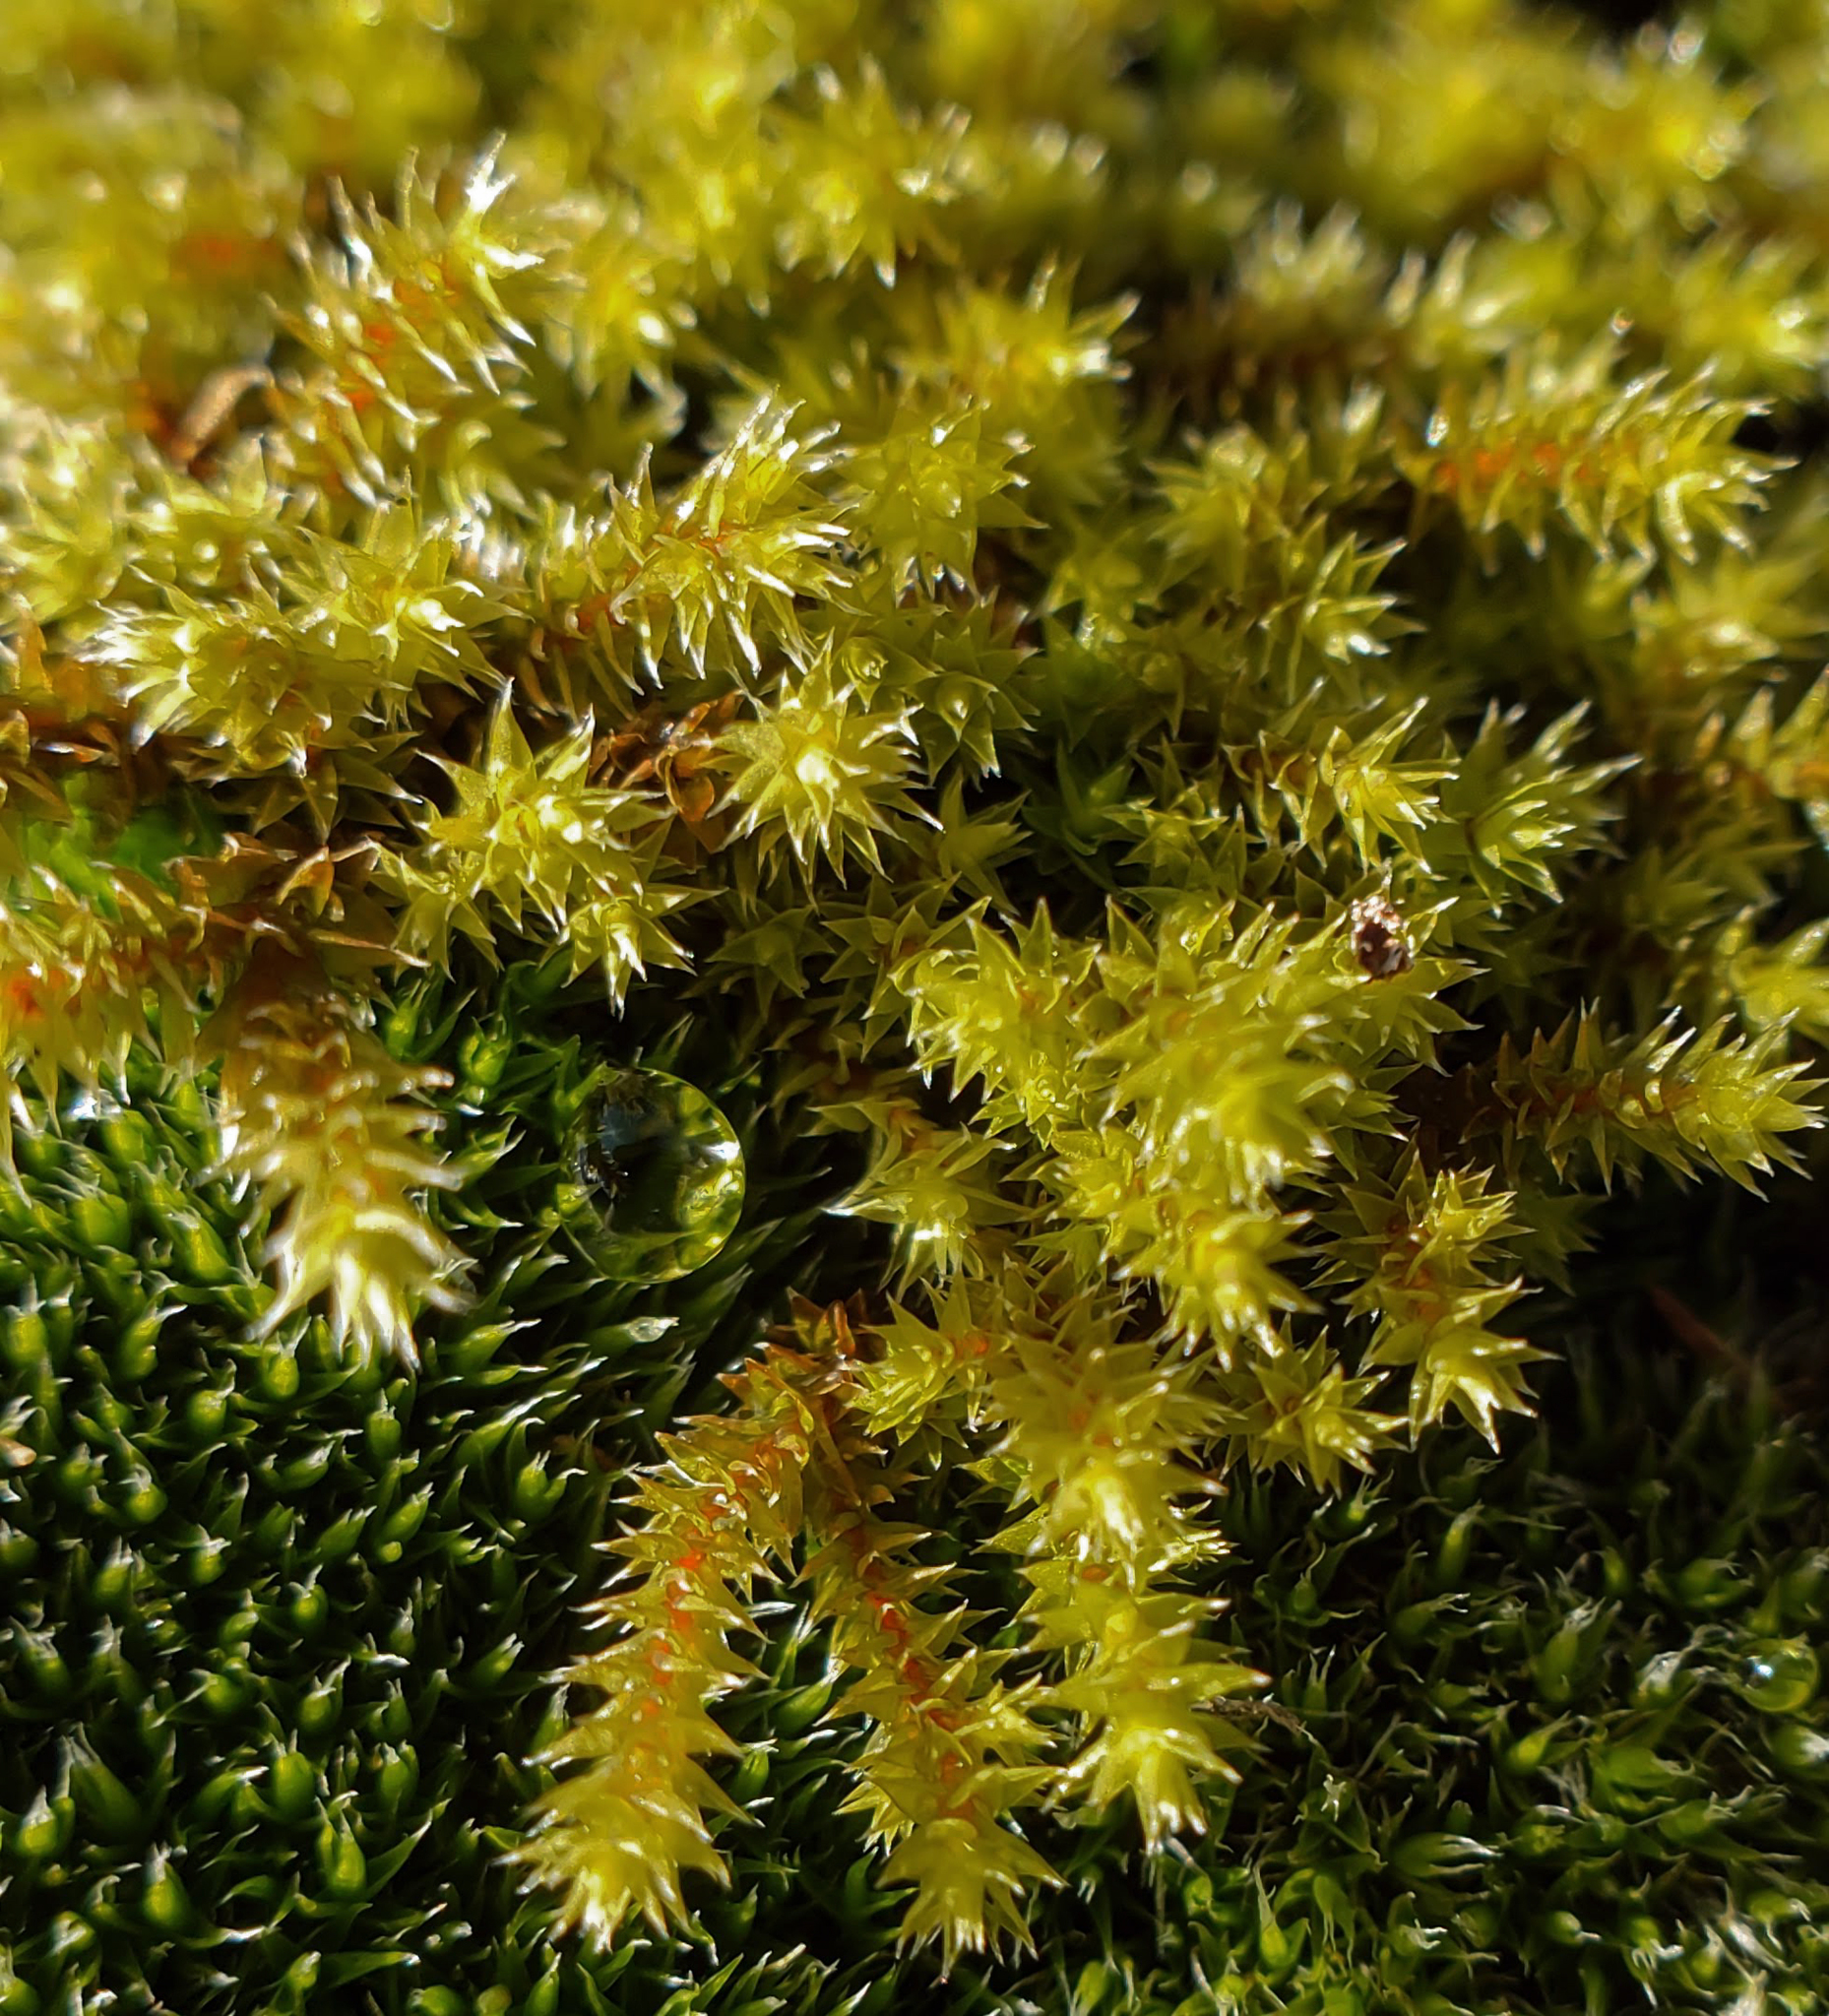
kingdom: Plantae
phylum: Bryophyta
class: Bryopsida
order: Hedwigiales
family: Hedwigiaceae
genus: Hedwigia
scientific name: Hedwigia ciliata
